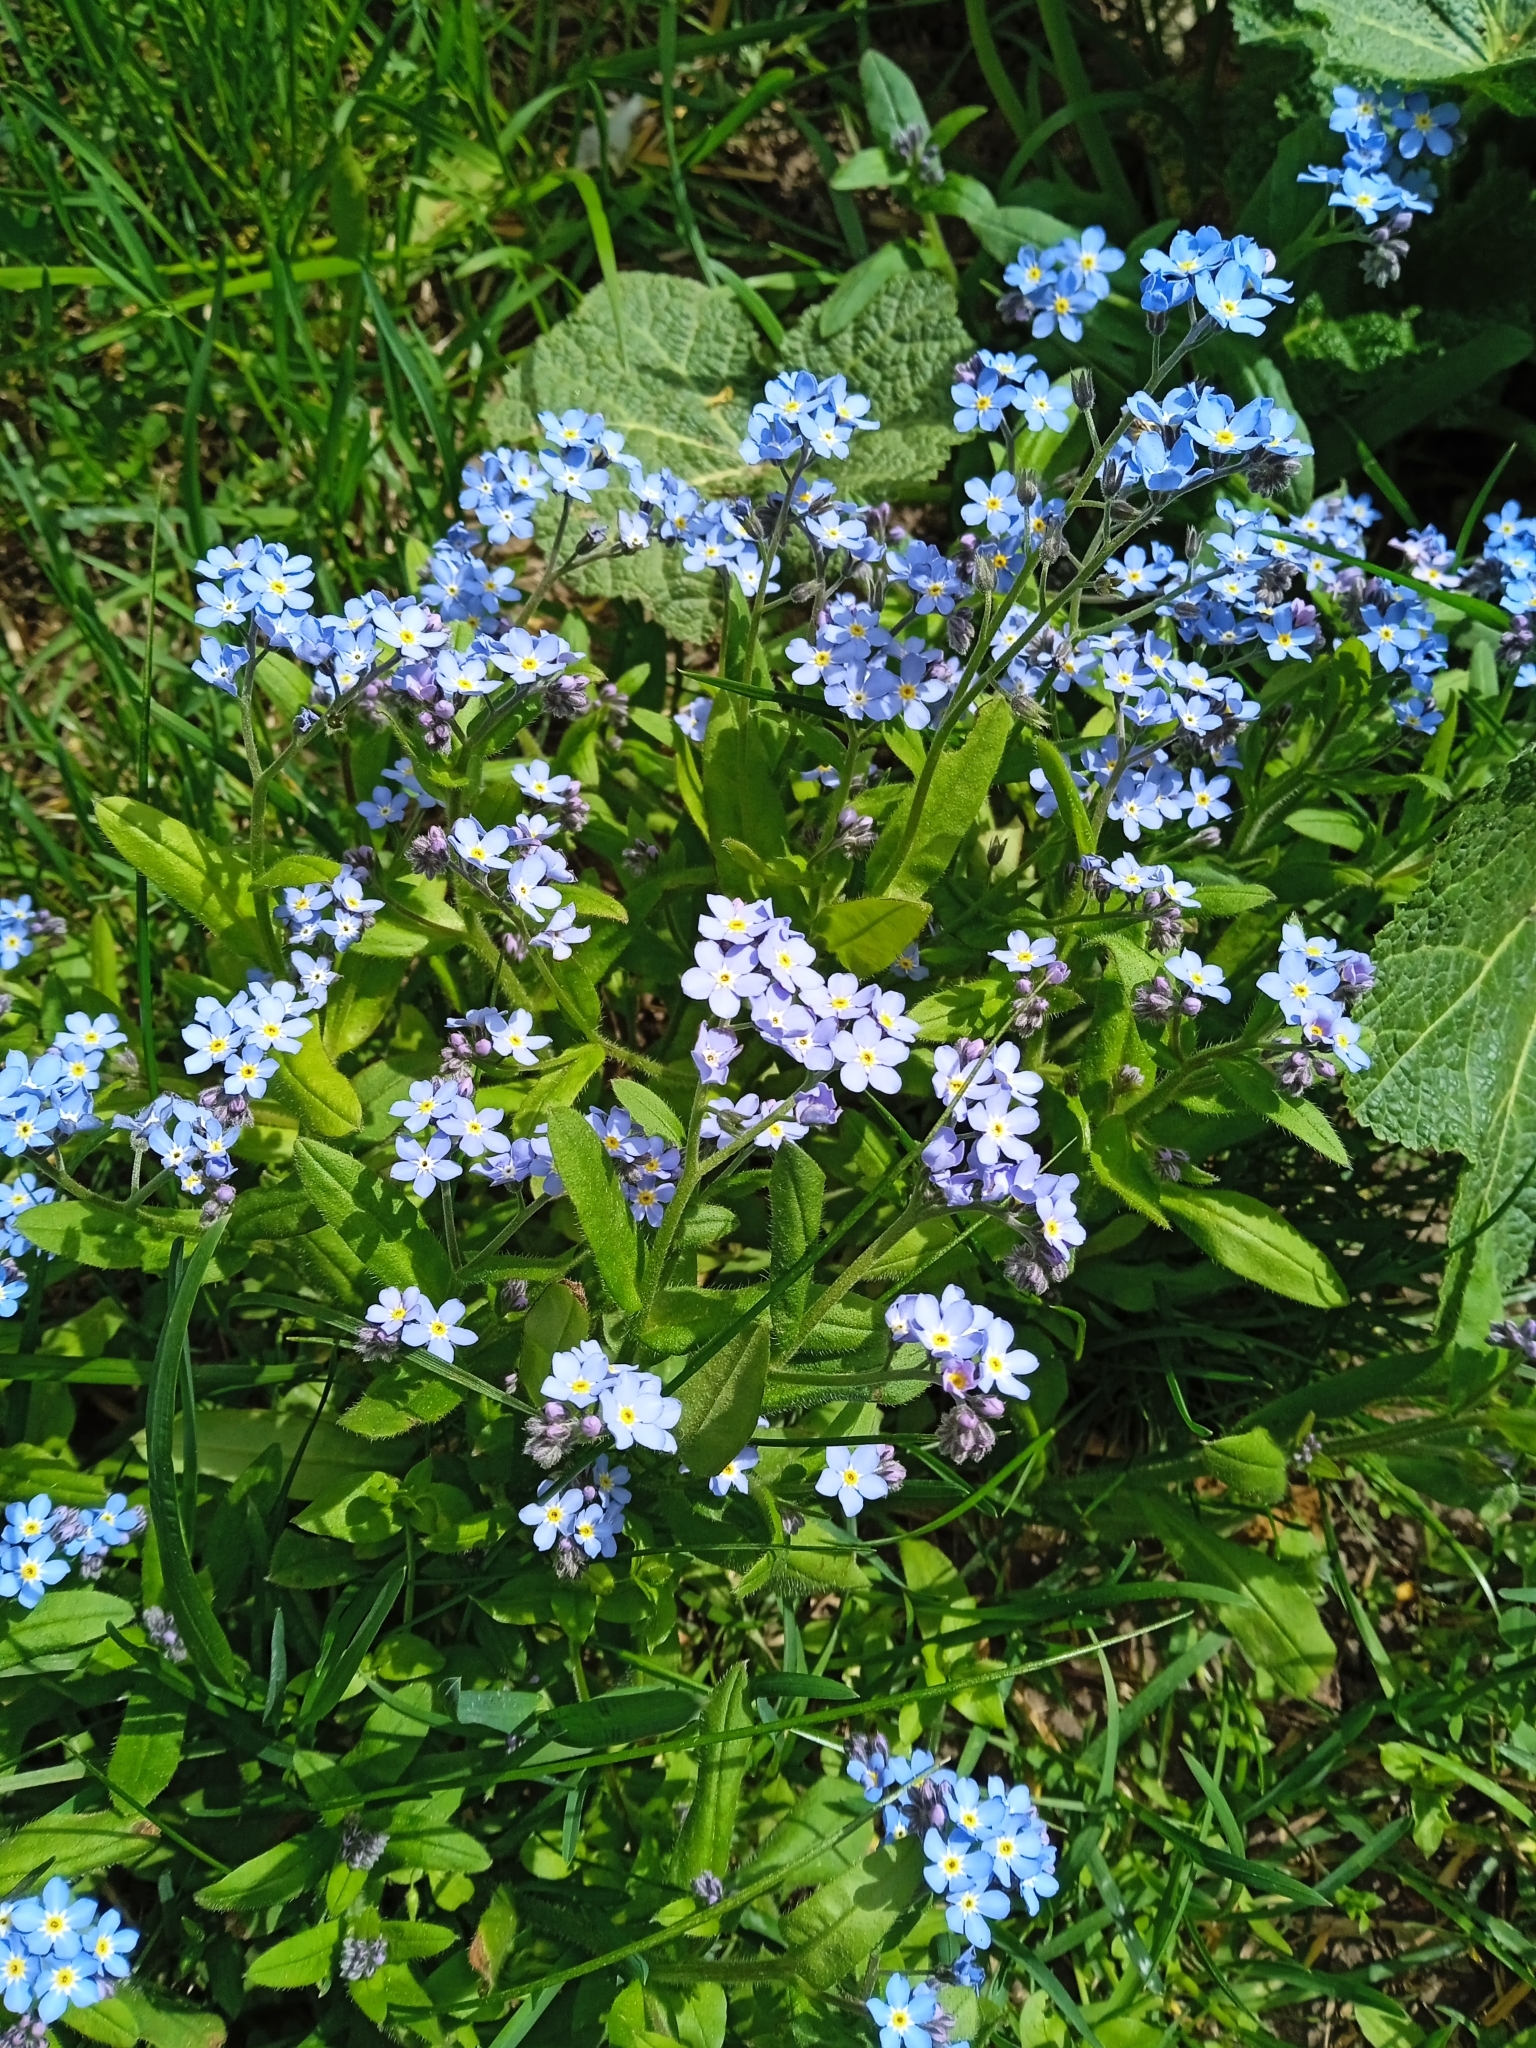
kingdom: Plantae
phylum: Tracheophyta
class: Magnoliopsida
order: Boraginales
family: Boraginaceae
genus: Myosotis
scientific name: Myosotis sylvatica
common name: Wood forget-me-not
